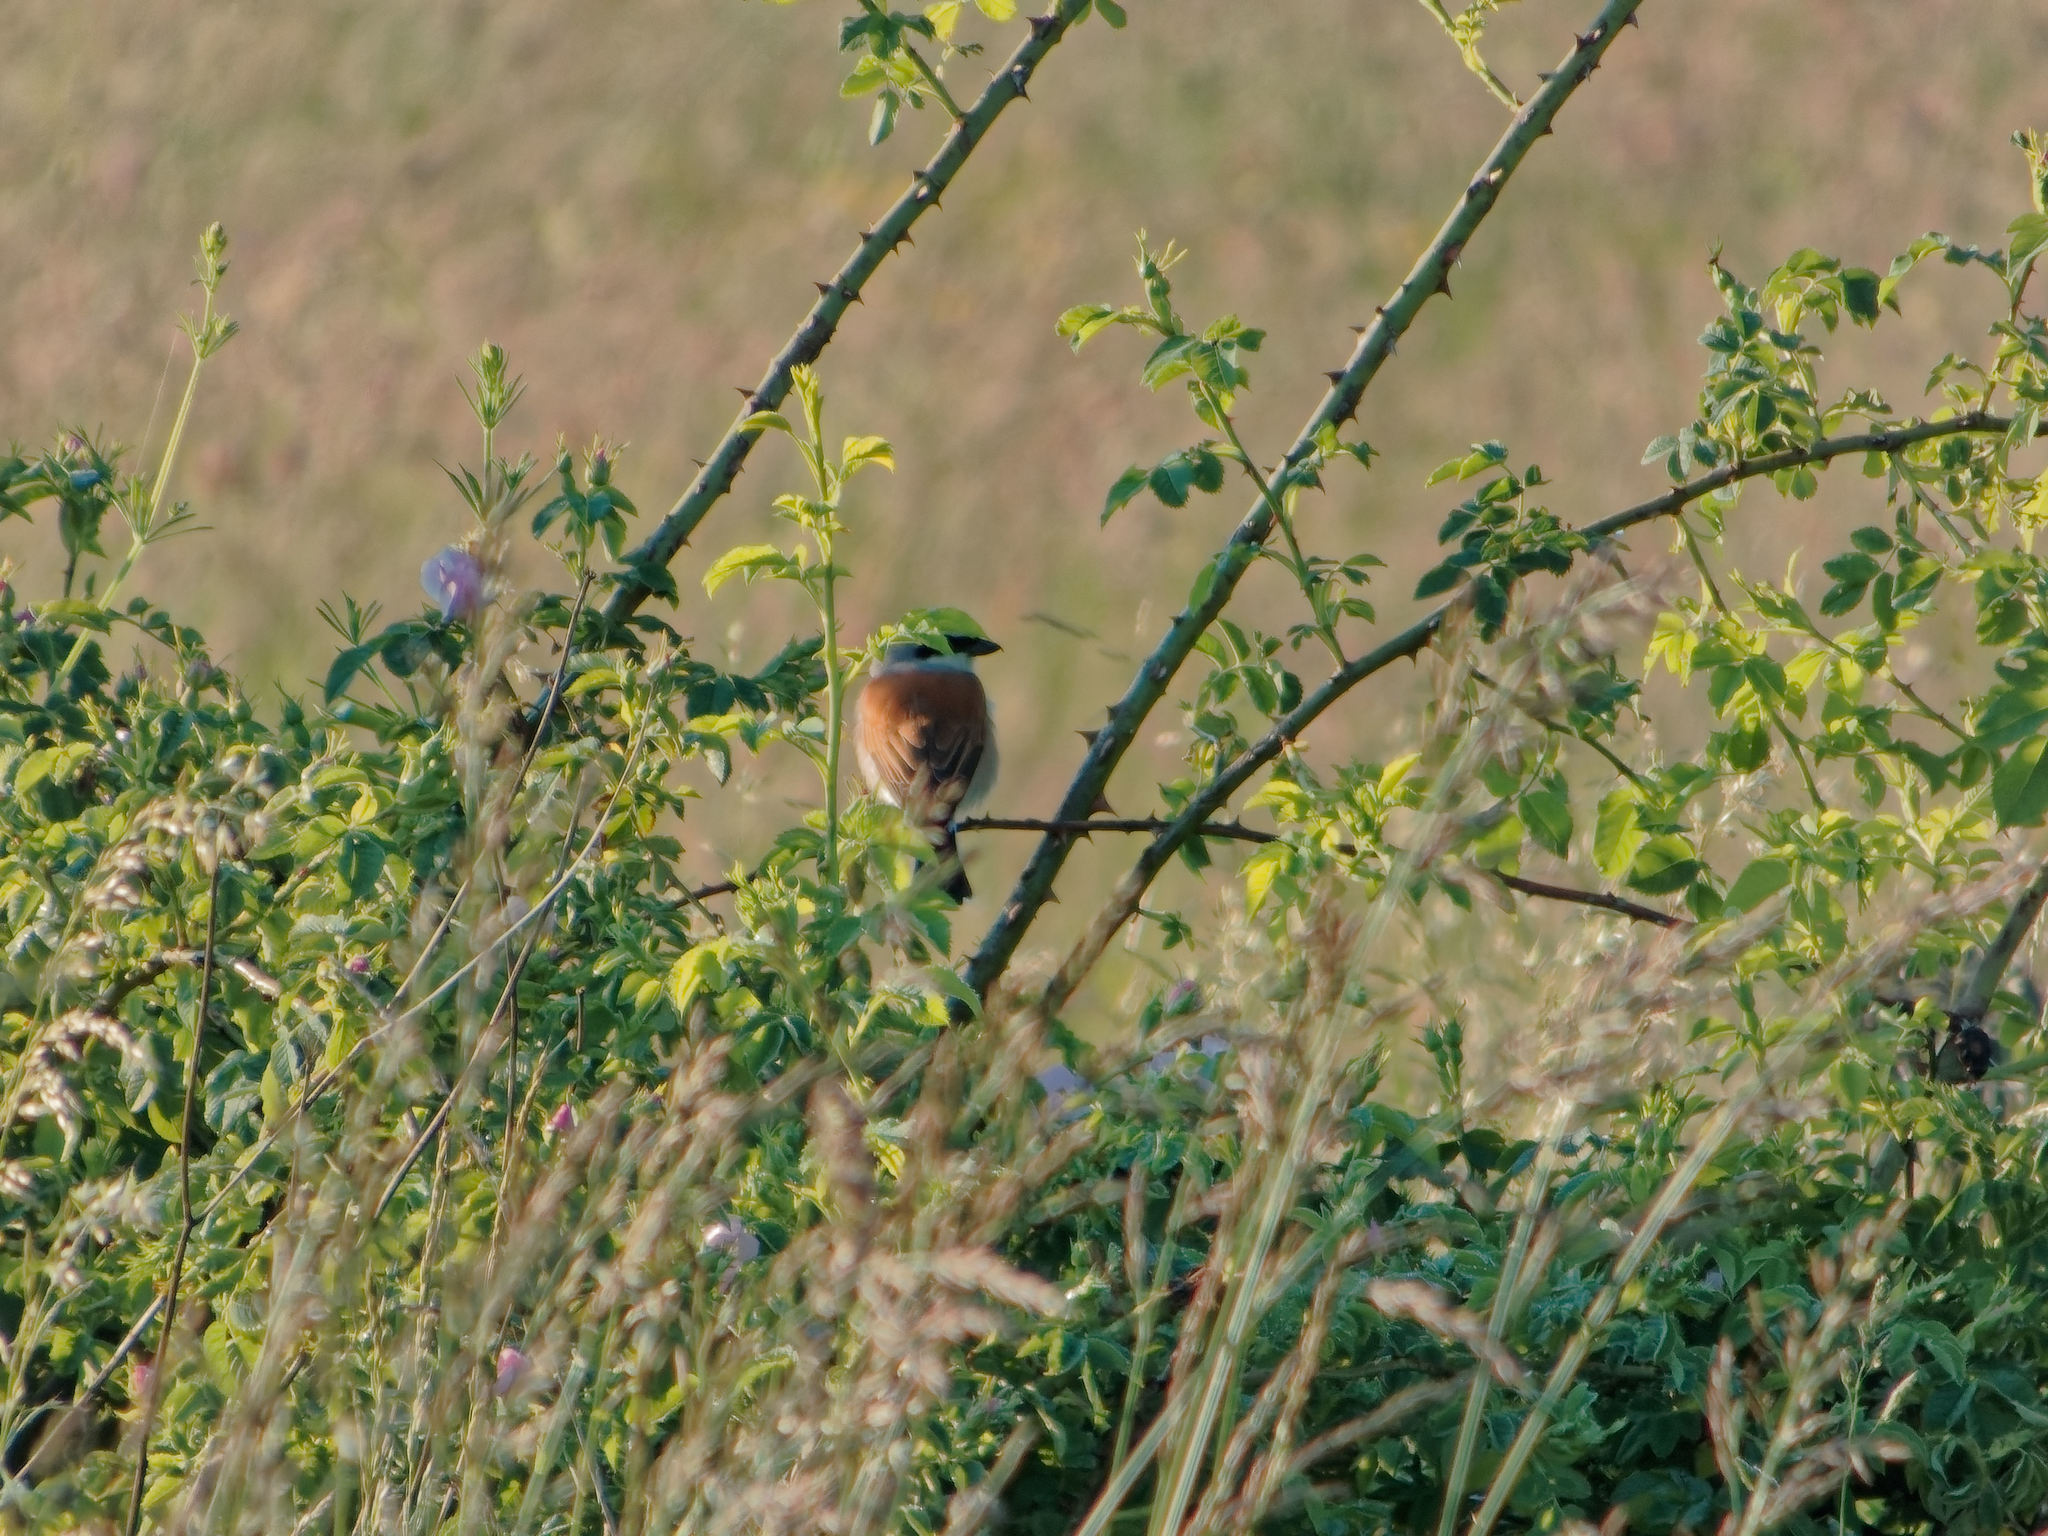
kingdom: Animalia
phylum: Chordata
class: Aves
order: Passeriformes
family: Laniidae
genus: Lanius
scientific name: Lanius collurio
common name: Red-backed shrike
